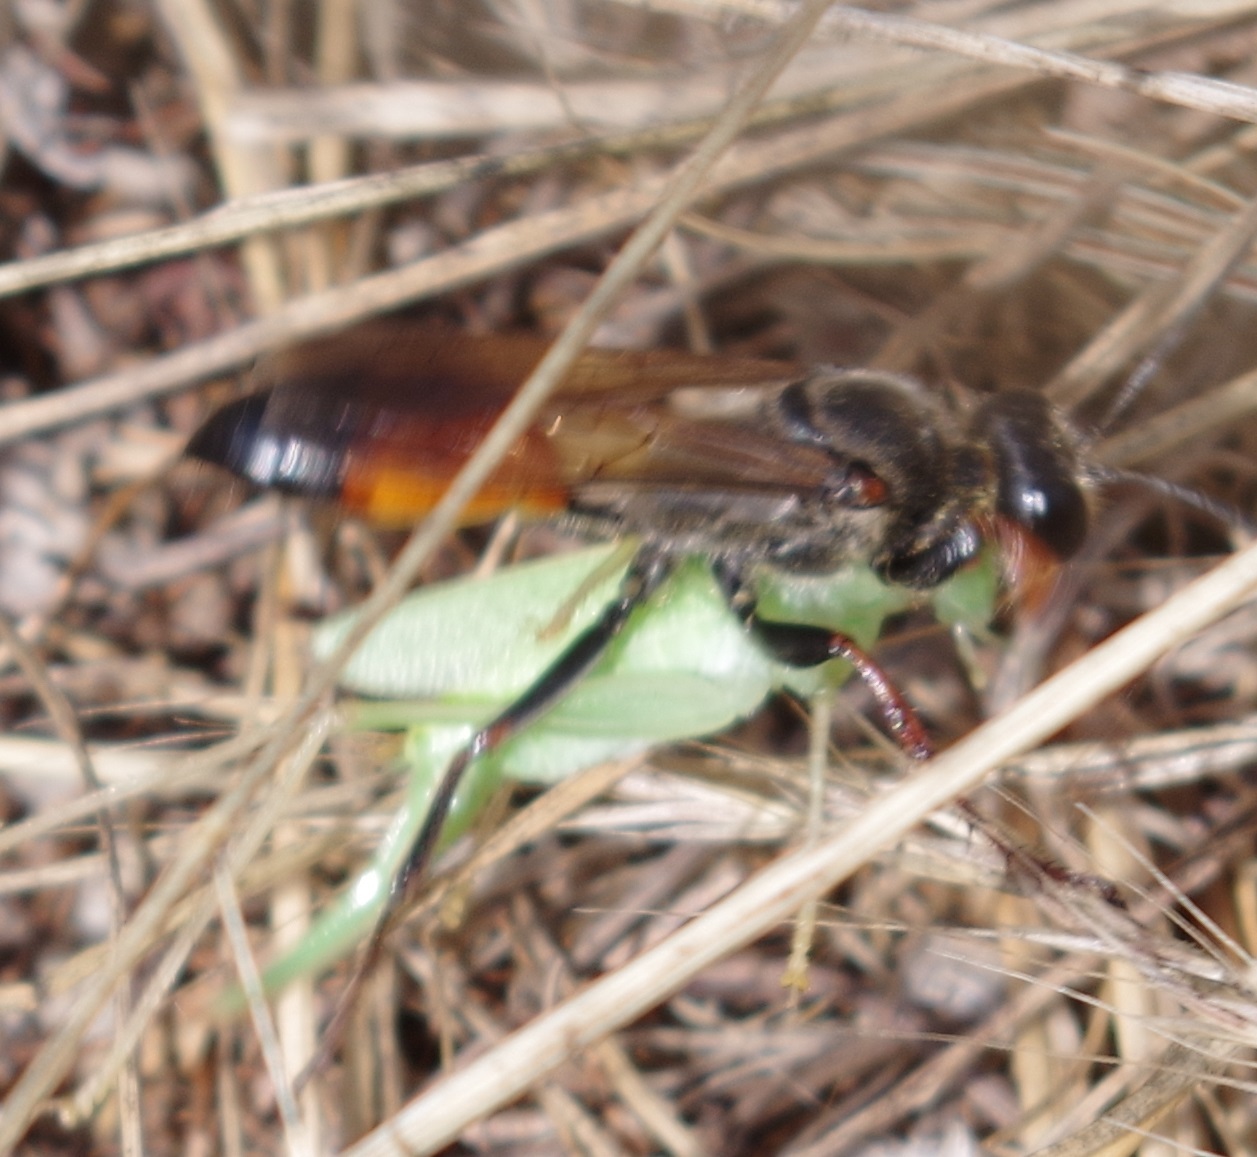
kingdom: Animalia
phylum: Arthropoda
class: Insecta
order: Hymenoptera
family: Sphecidae
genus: Sphex
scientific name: Sphex funerarius
